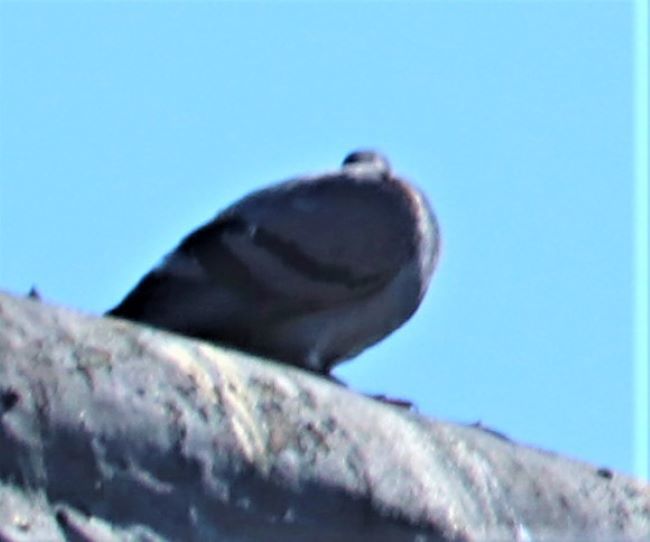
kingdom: Animalia
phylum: Chordata
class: Aves
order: Columbiformes
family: Columbidae
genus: Columba
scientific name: Columba livia
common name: Rock pigeon
